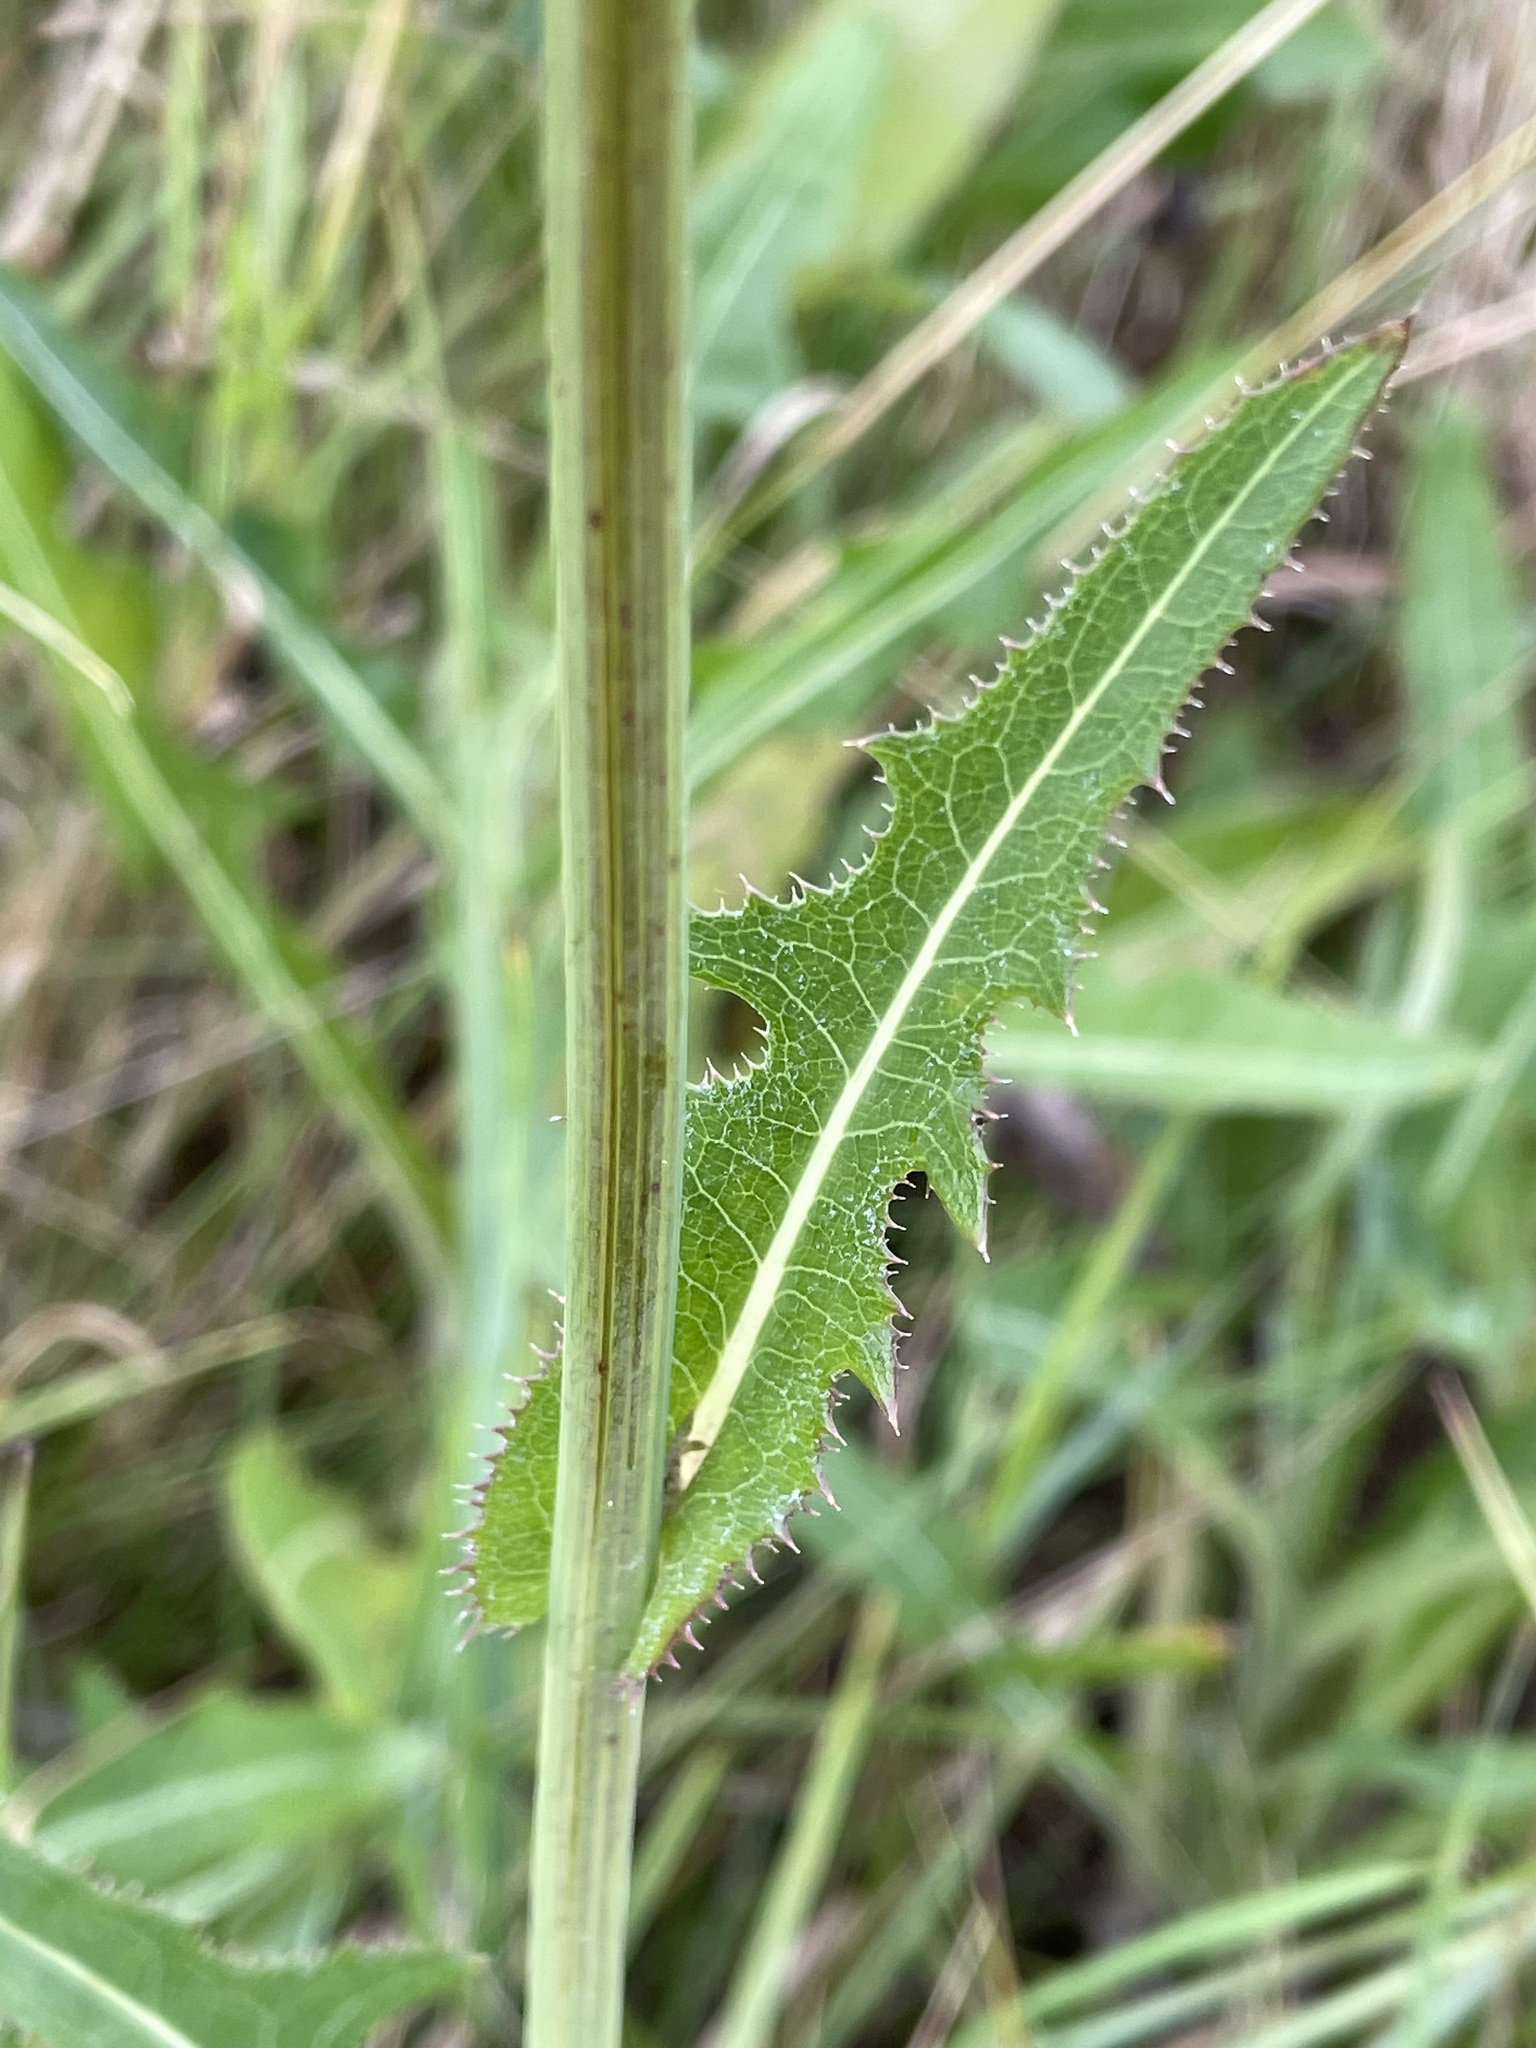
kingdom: Plantae
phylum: Tracheophyta
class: Magnoliopsida
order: Asterales
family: Asteraceae
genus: Sonchus
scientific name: Sonchus arvensis
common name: Perennial sow-thistle
